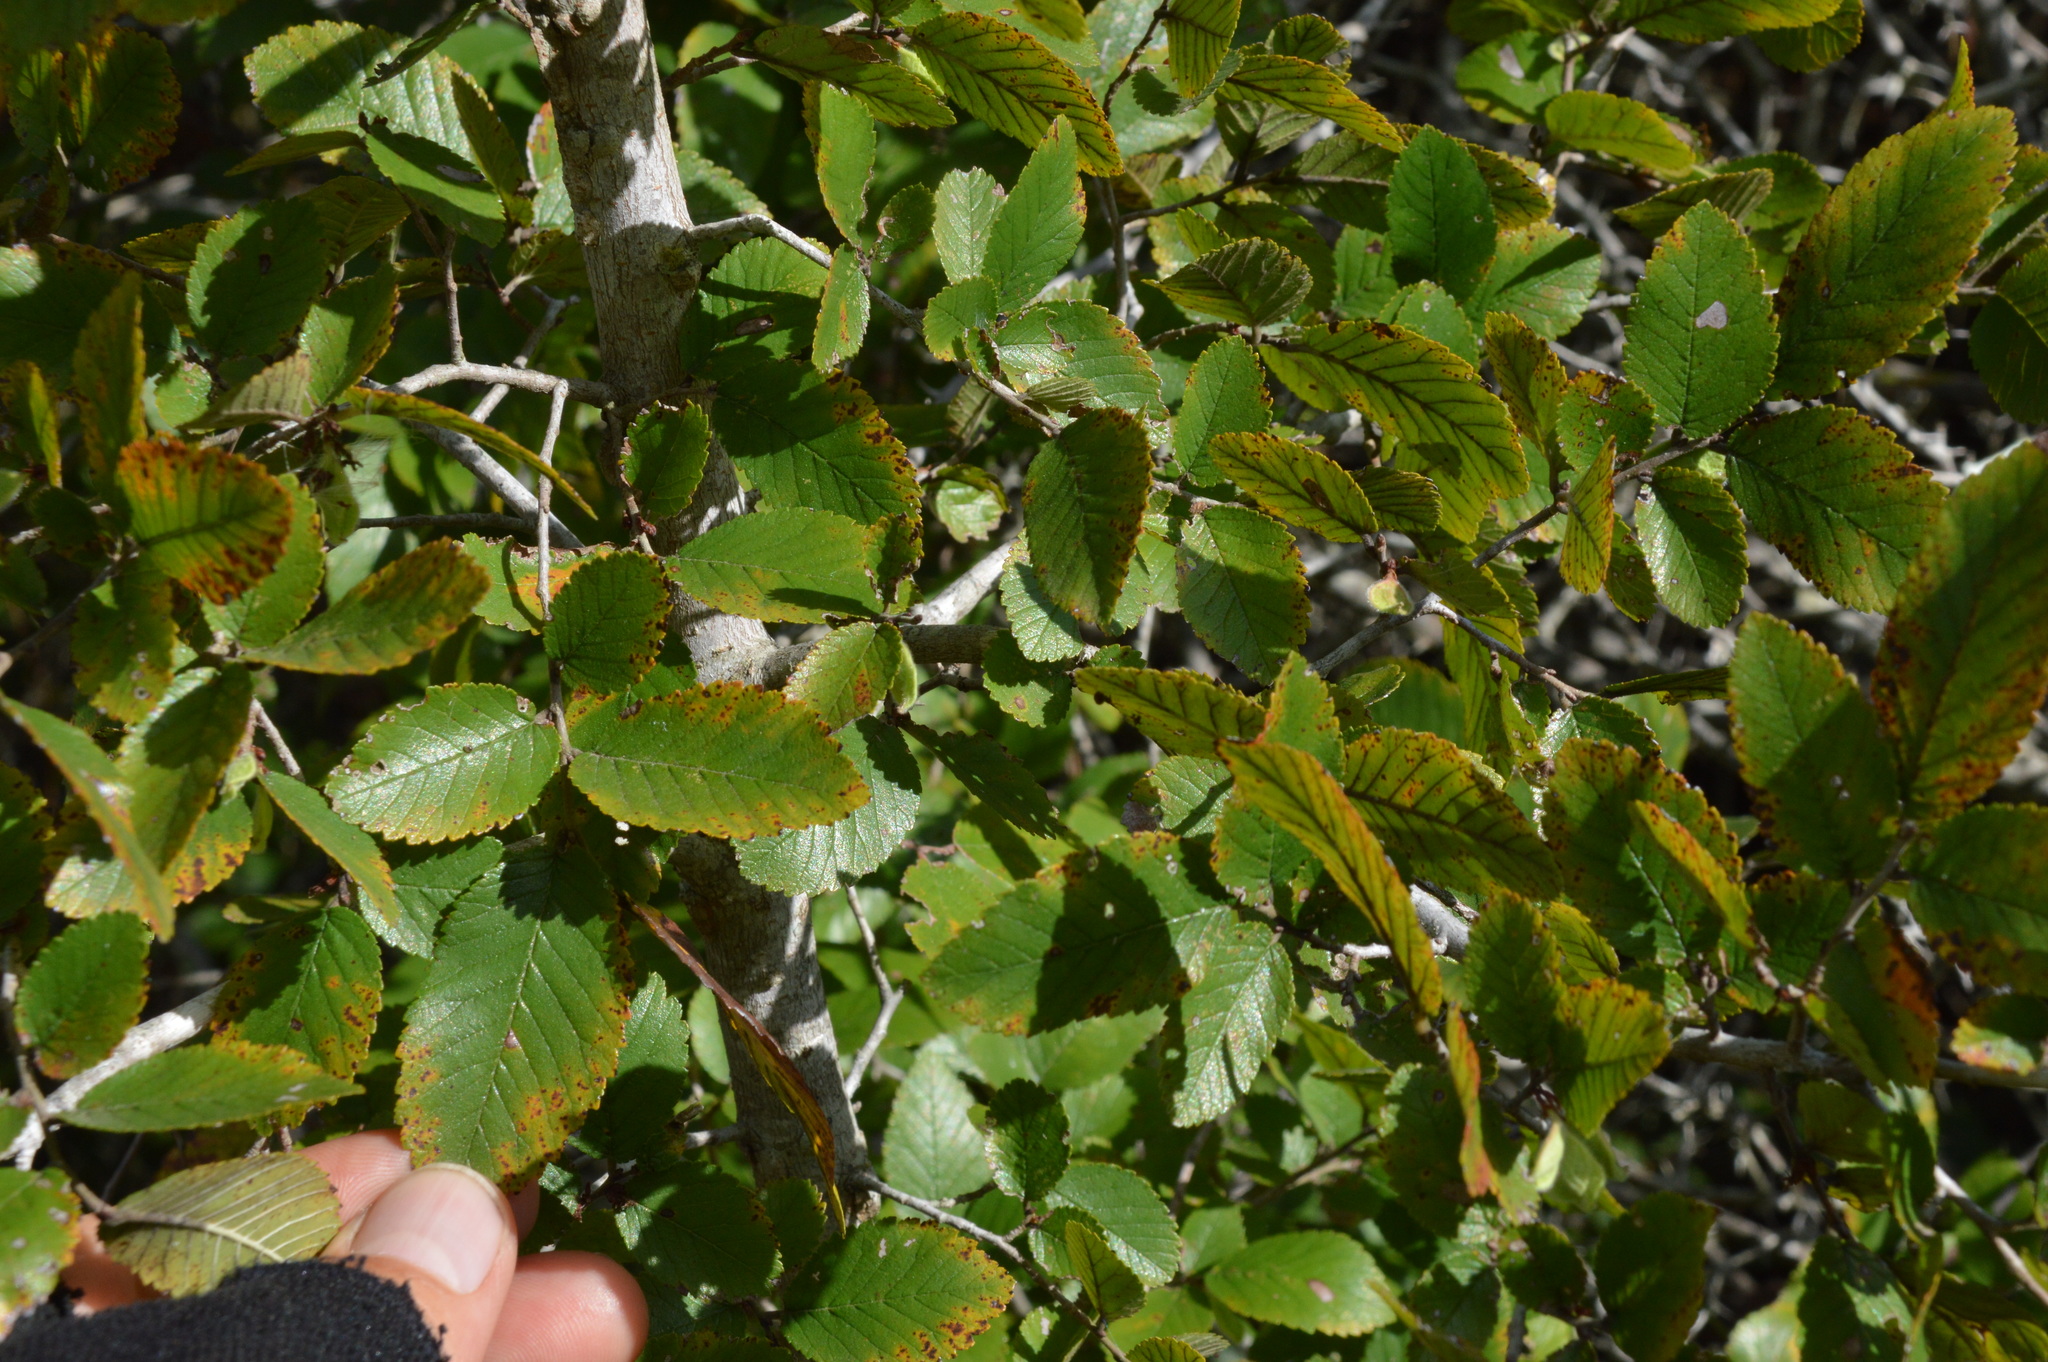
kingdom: Plantae
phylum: Tracheophyta
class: Magnoliopsida
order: Rosales
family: Ulmaceae
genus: Ulmus
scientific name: Ulmus crassifolia
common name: Basket elm
